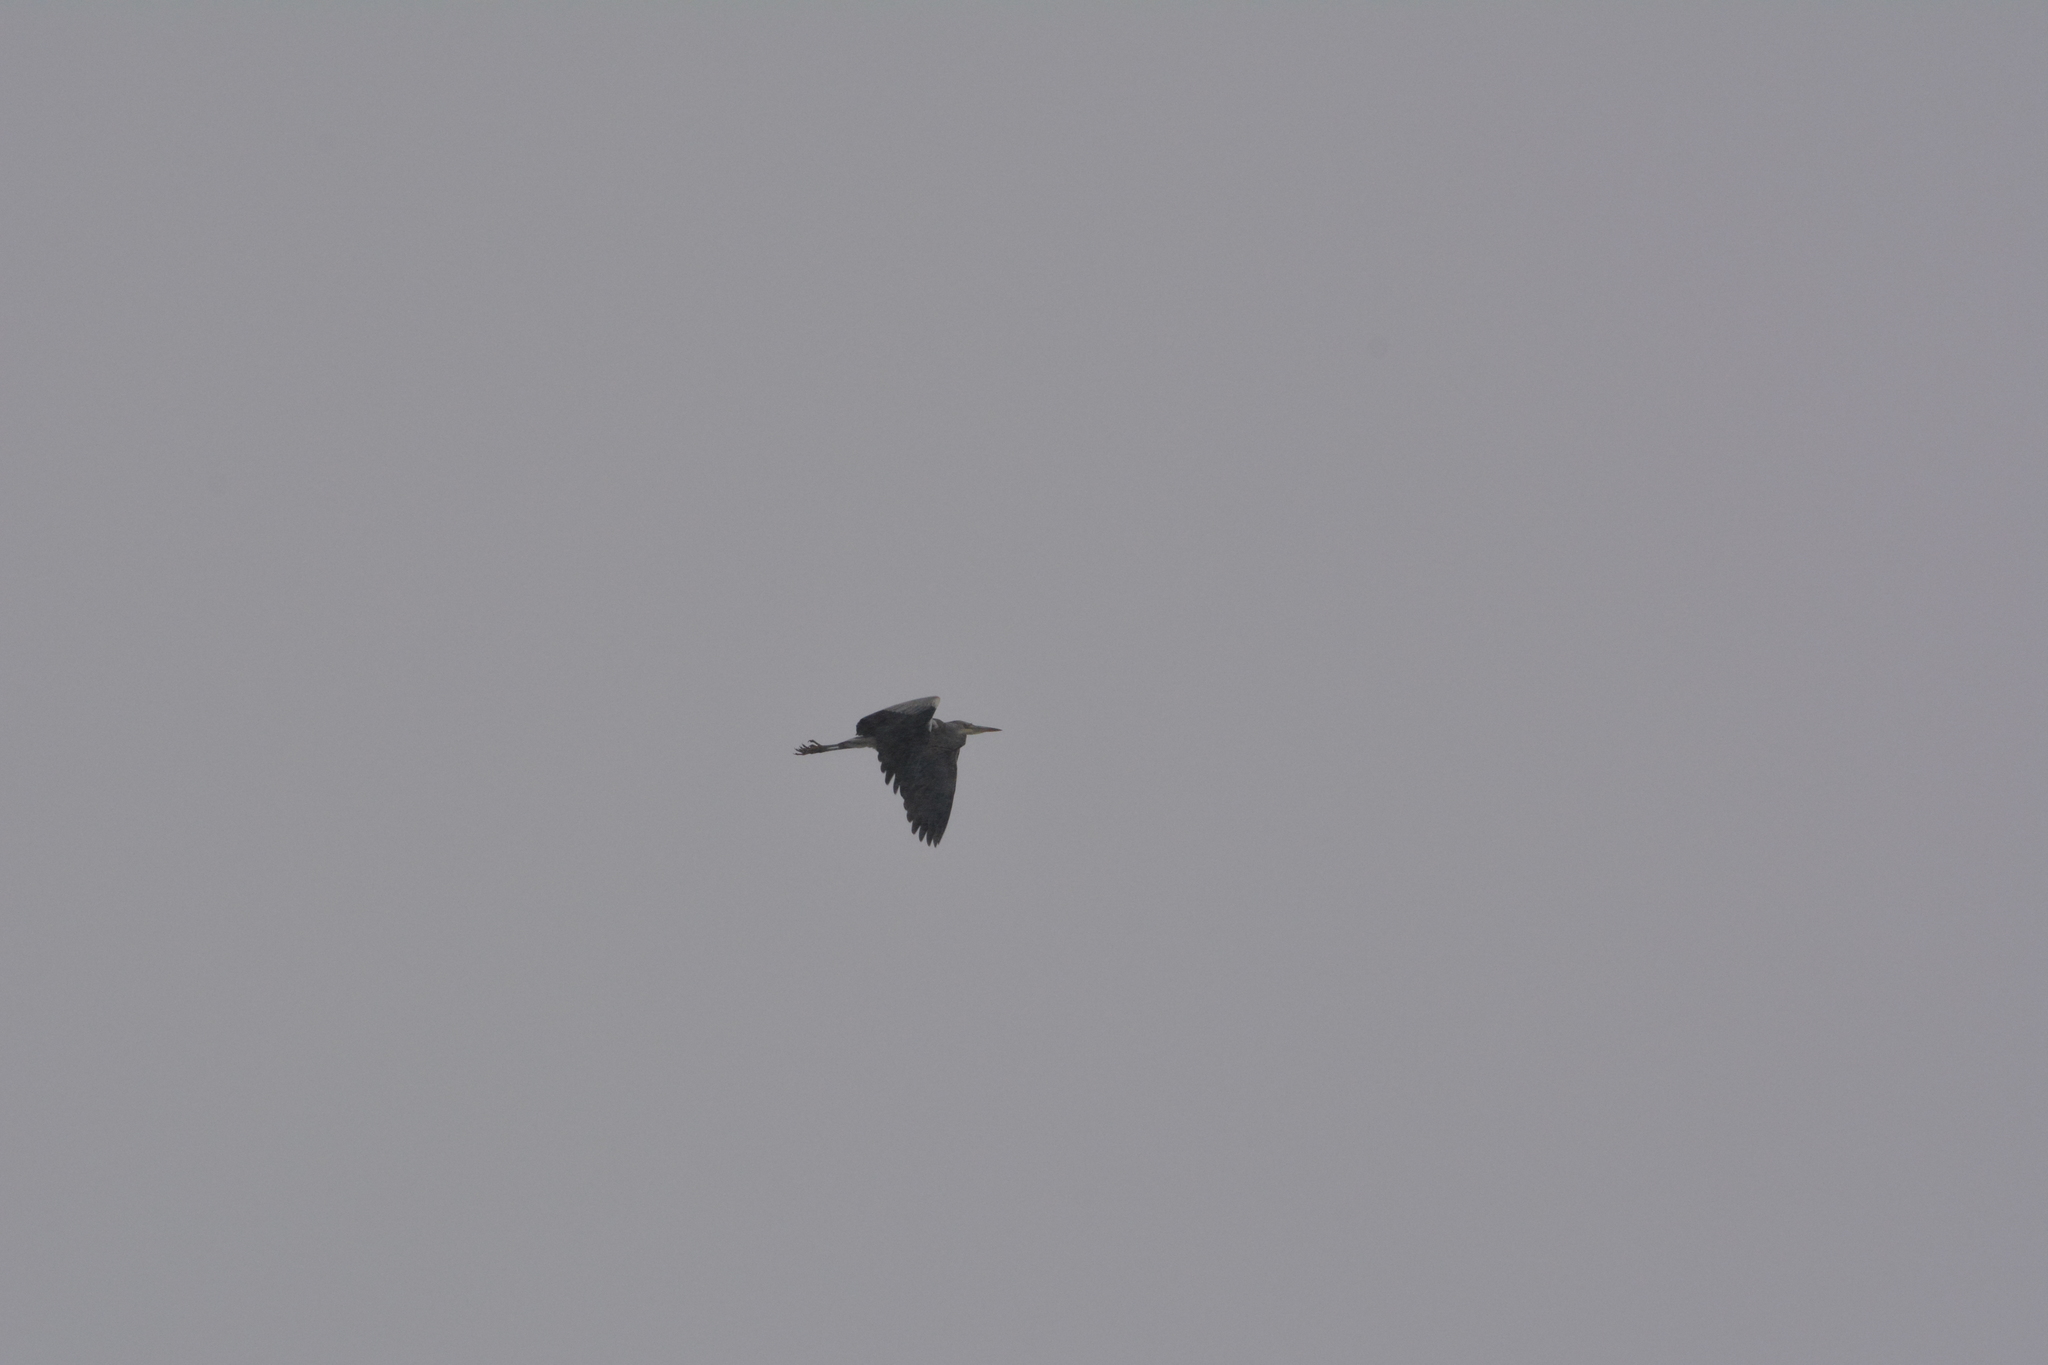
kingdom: Animalia
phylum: Chordata
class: Aves
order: Pelecaniformes
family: Ardeidae
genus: Ardea
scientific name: Ardea cinerea
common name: Grey heron
